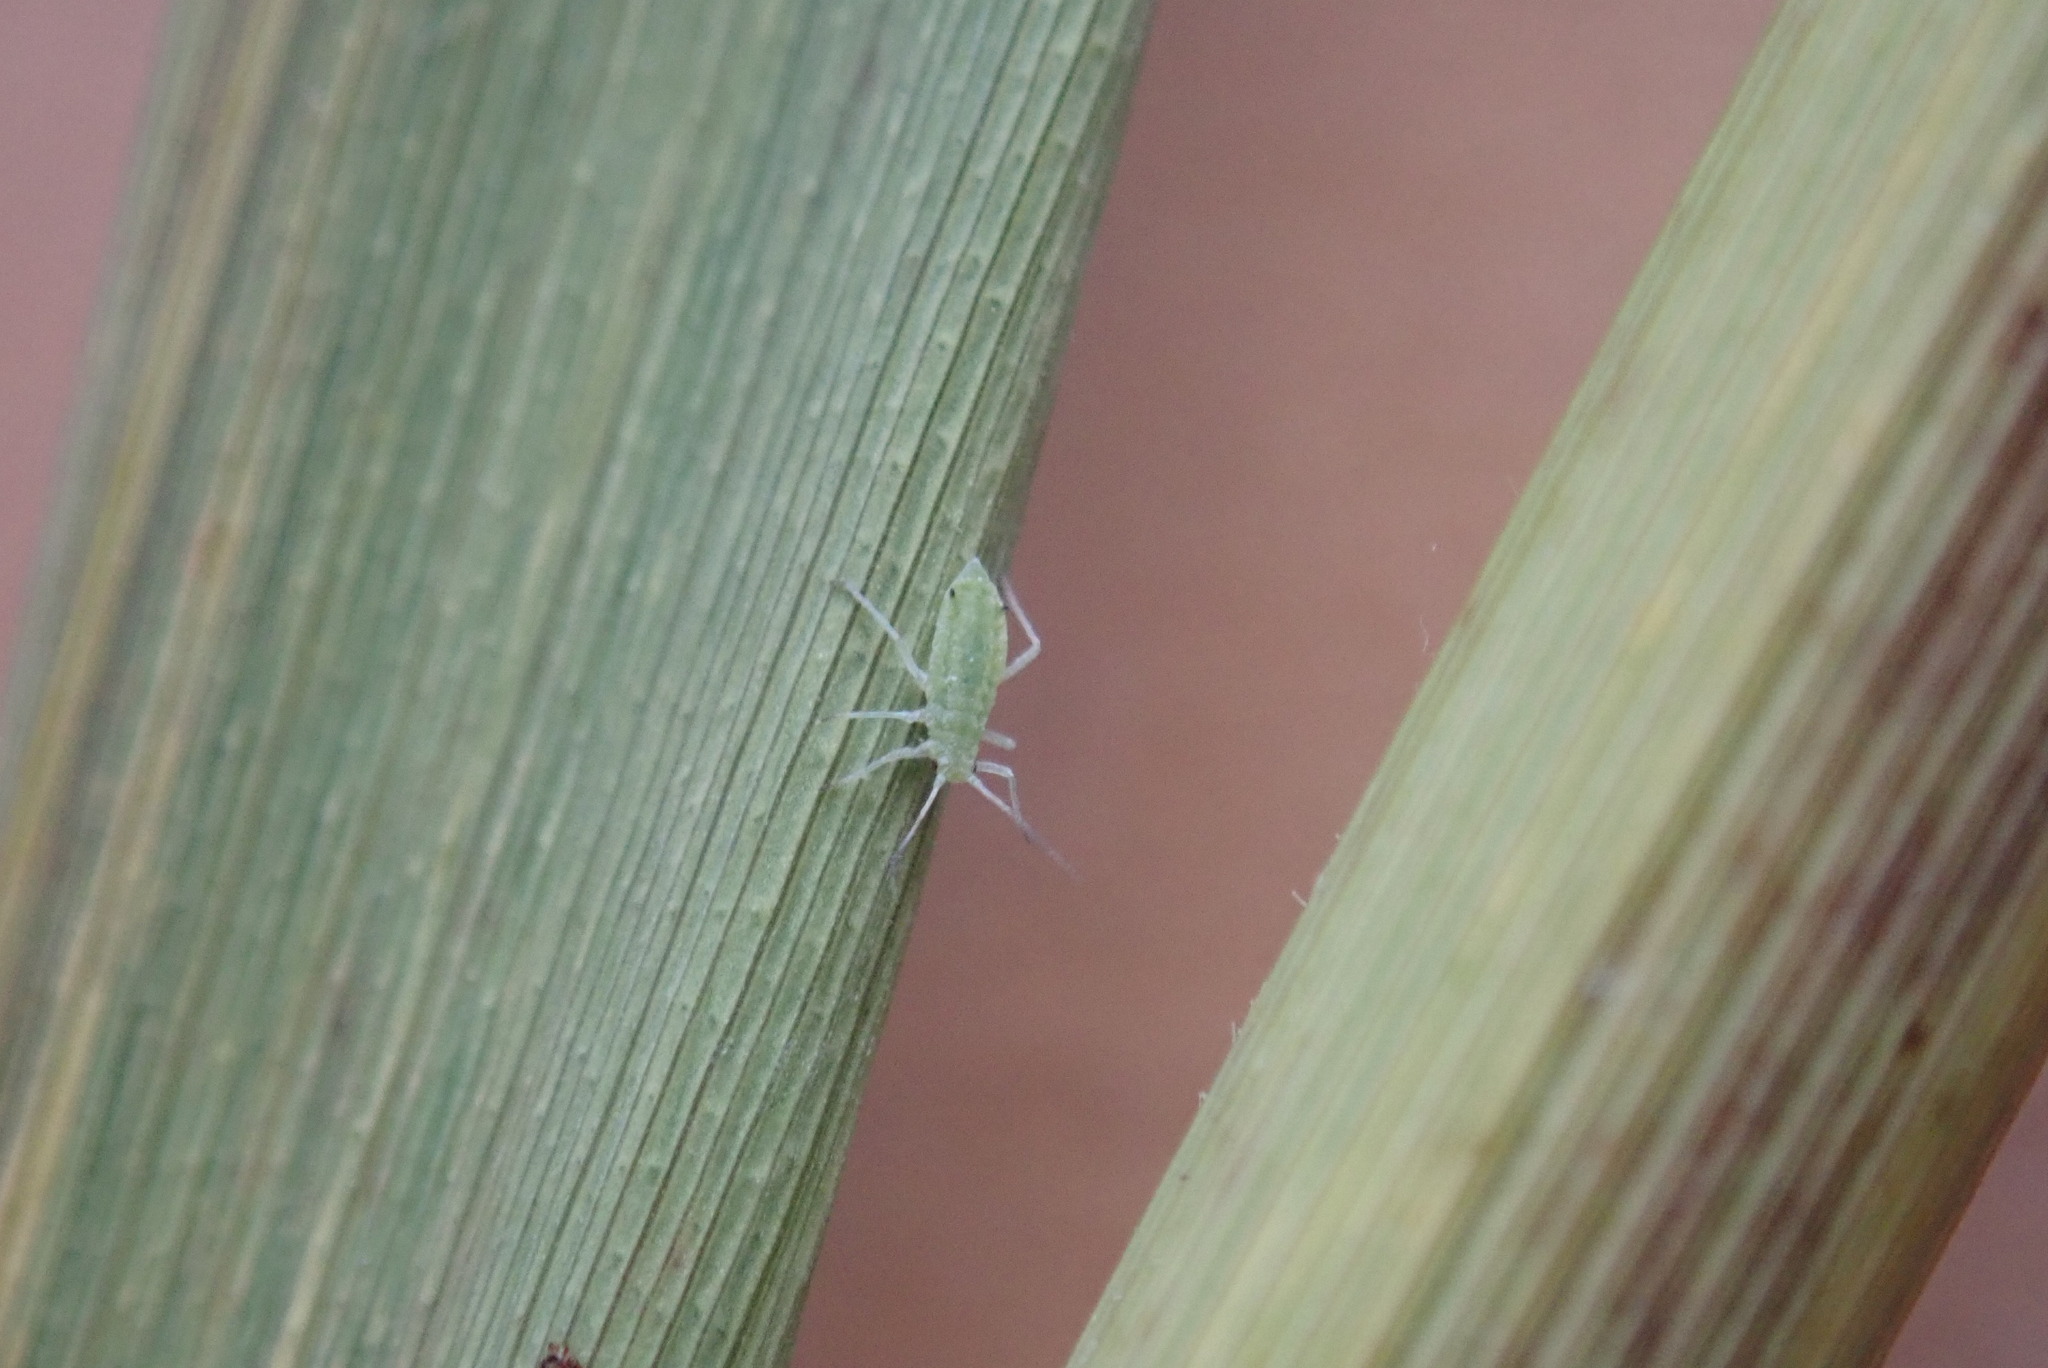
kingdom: Animalia
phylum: Arthropoda
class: Insecta
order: Hemiptera
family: Aphididae
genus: Hyalopterus
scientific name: Hyalopterus pruni
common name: Mealy plum aphid
